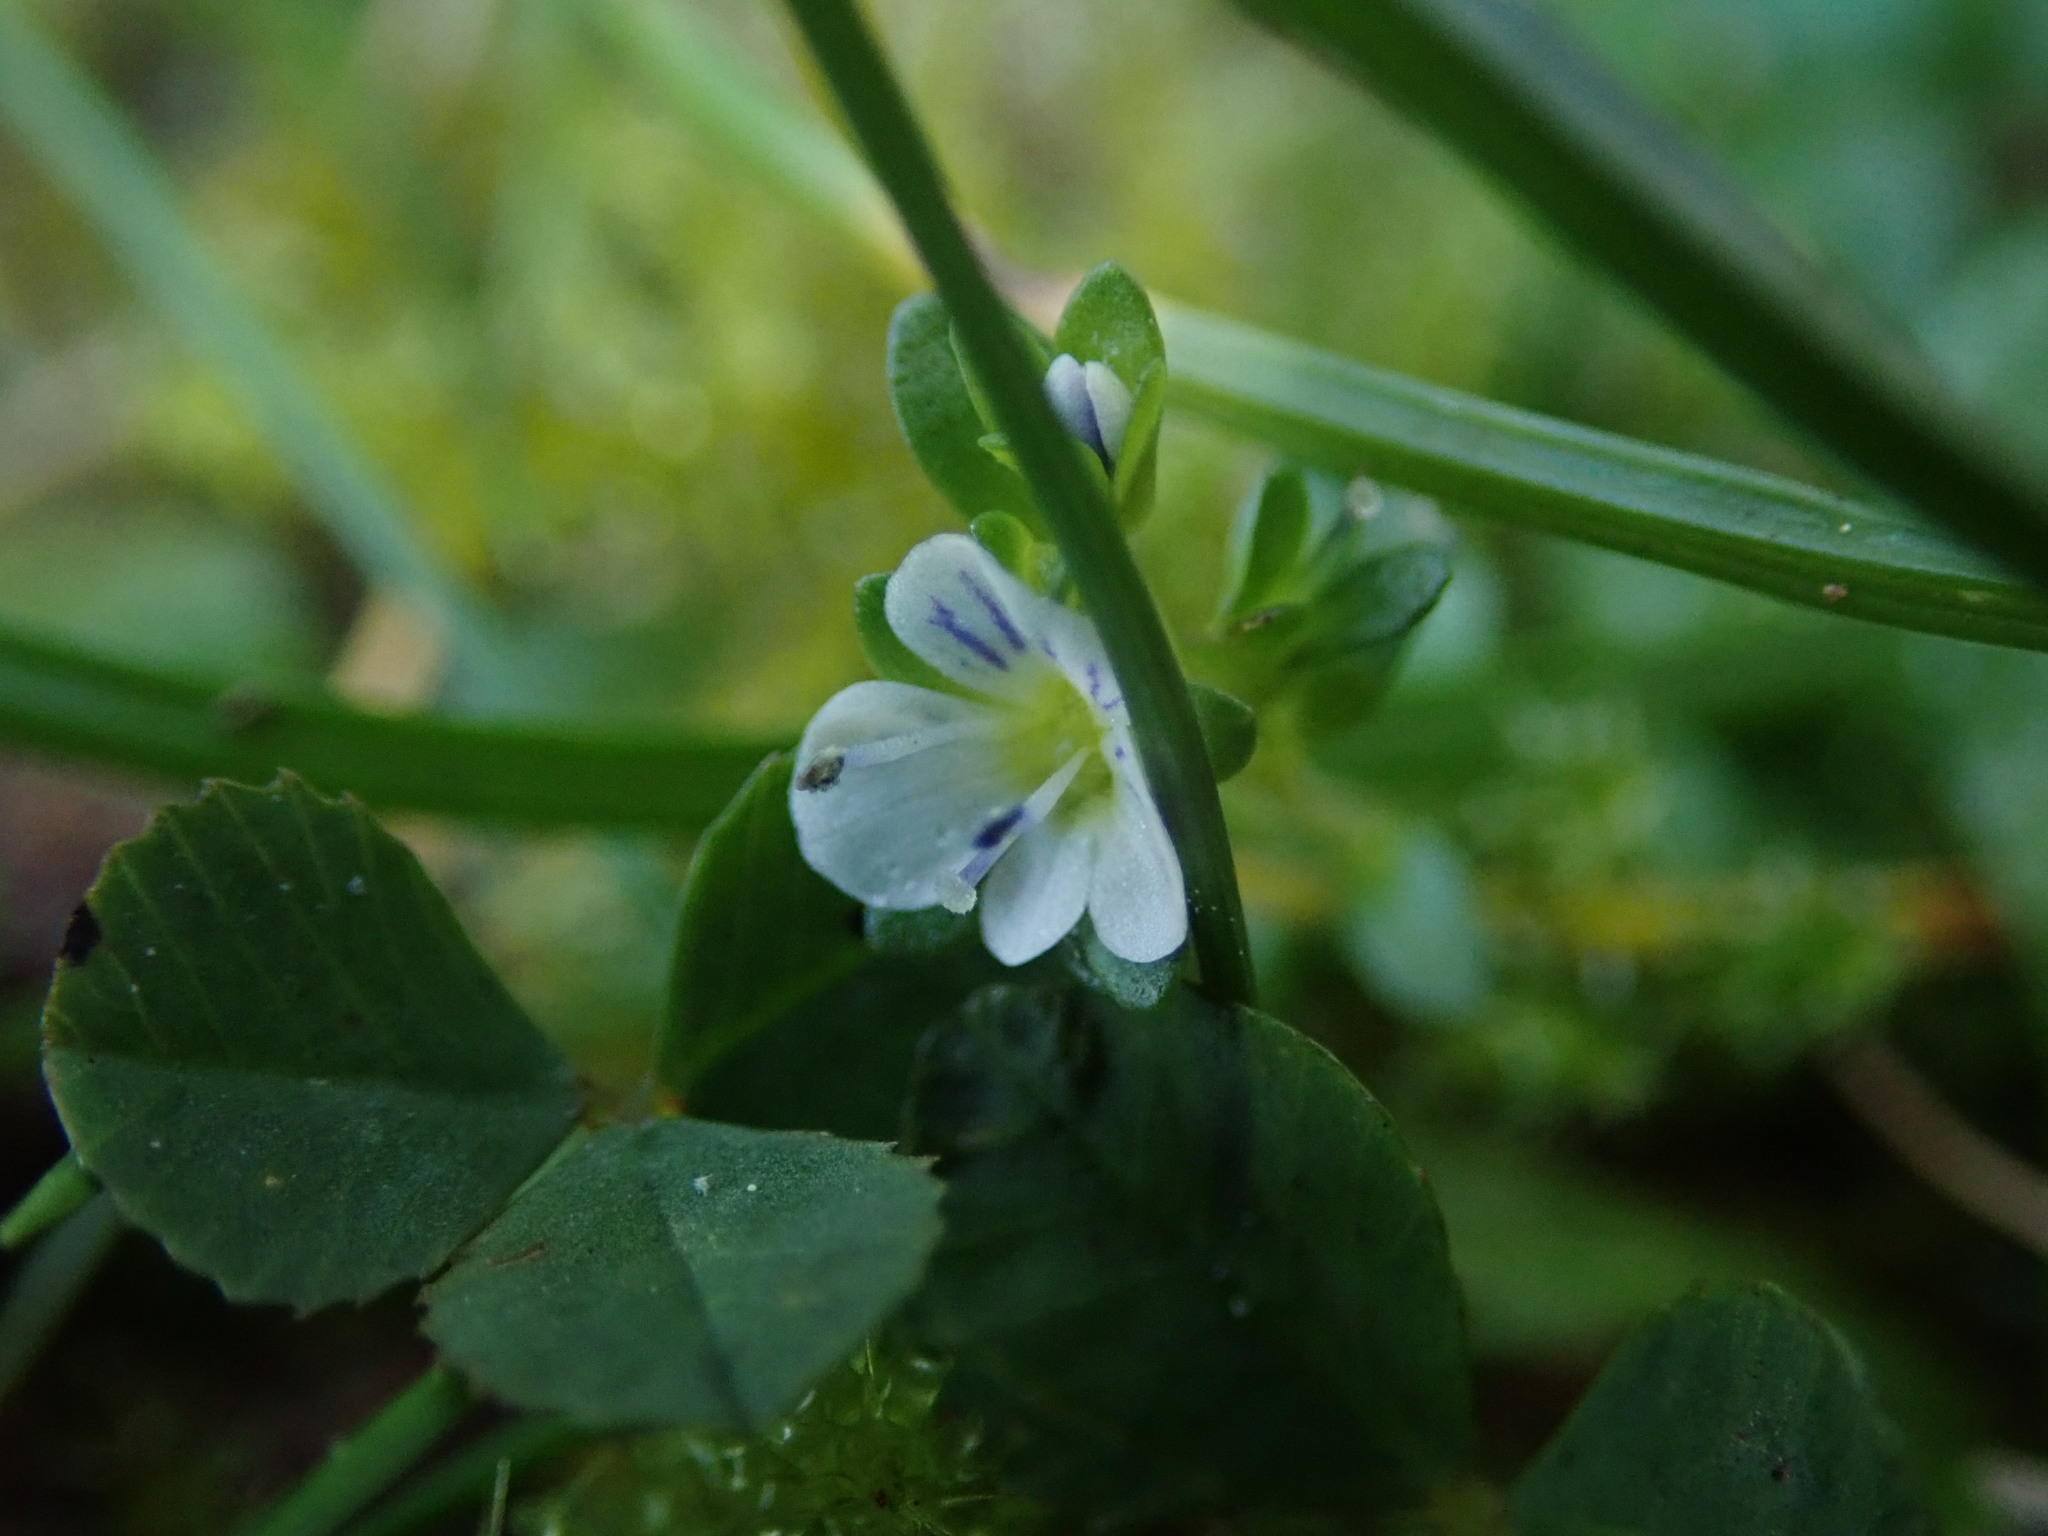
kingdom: Plantae
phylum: Tracheophyta
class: Magnoliopsida
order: Lamiales
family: Plantaginaceae
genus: Veronica
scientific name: Veronica serpyllifolia
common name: Thyme-leaved speedwell
